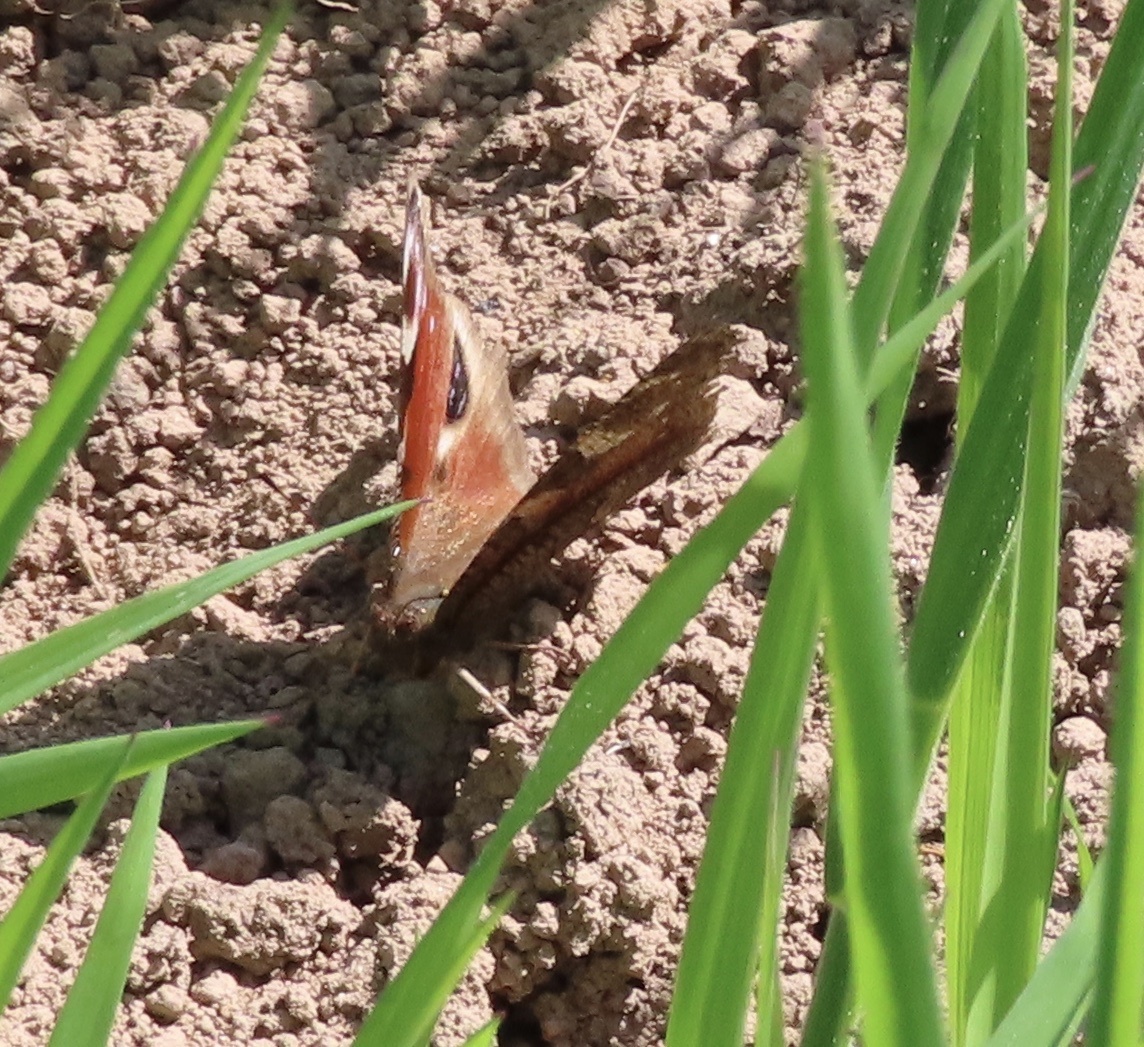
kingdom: Animalia
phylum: Arthropoda
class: Insecta
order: Lepidoptera
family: Nymphalidae
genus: Aglais
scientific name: Aglais io
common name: Peacock
